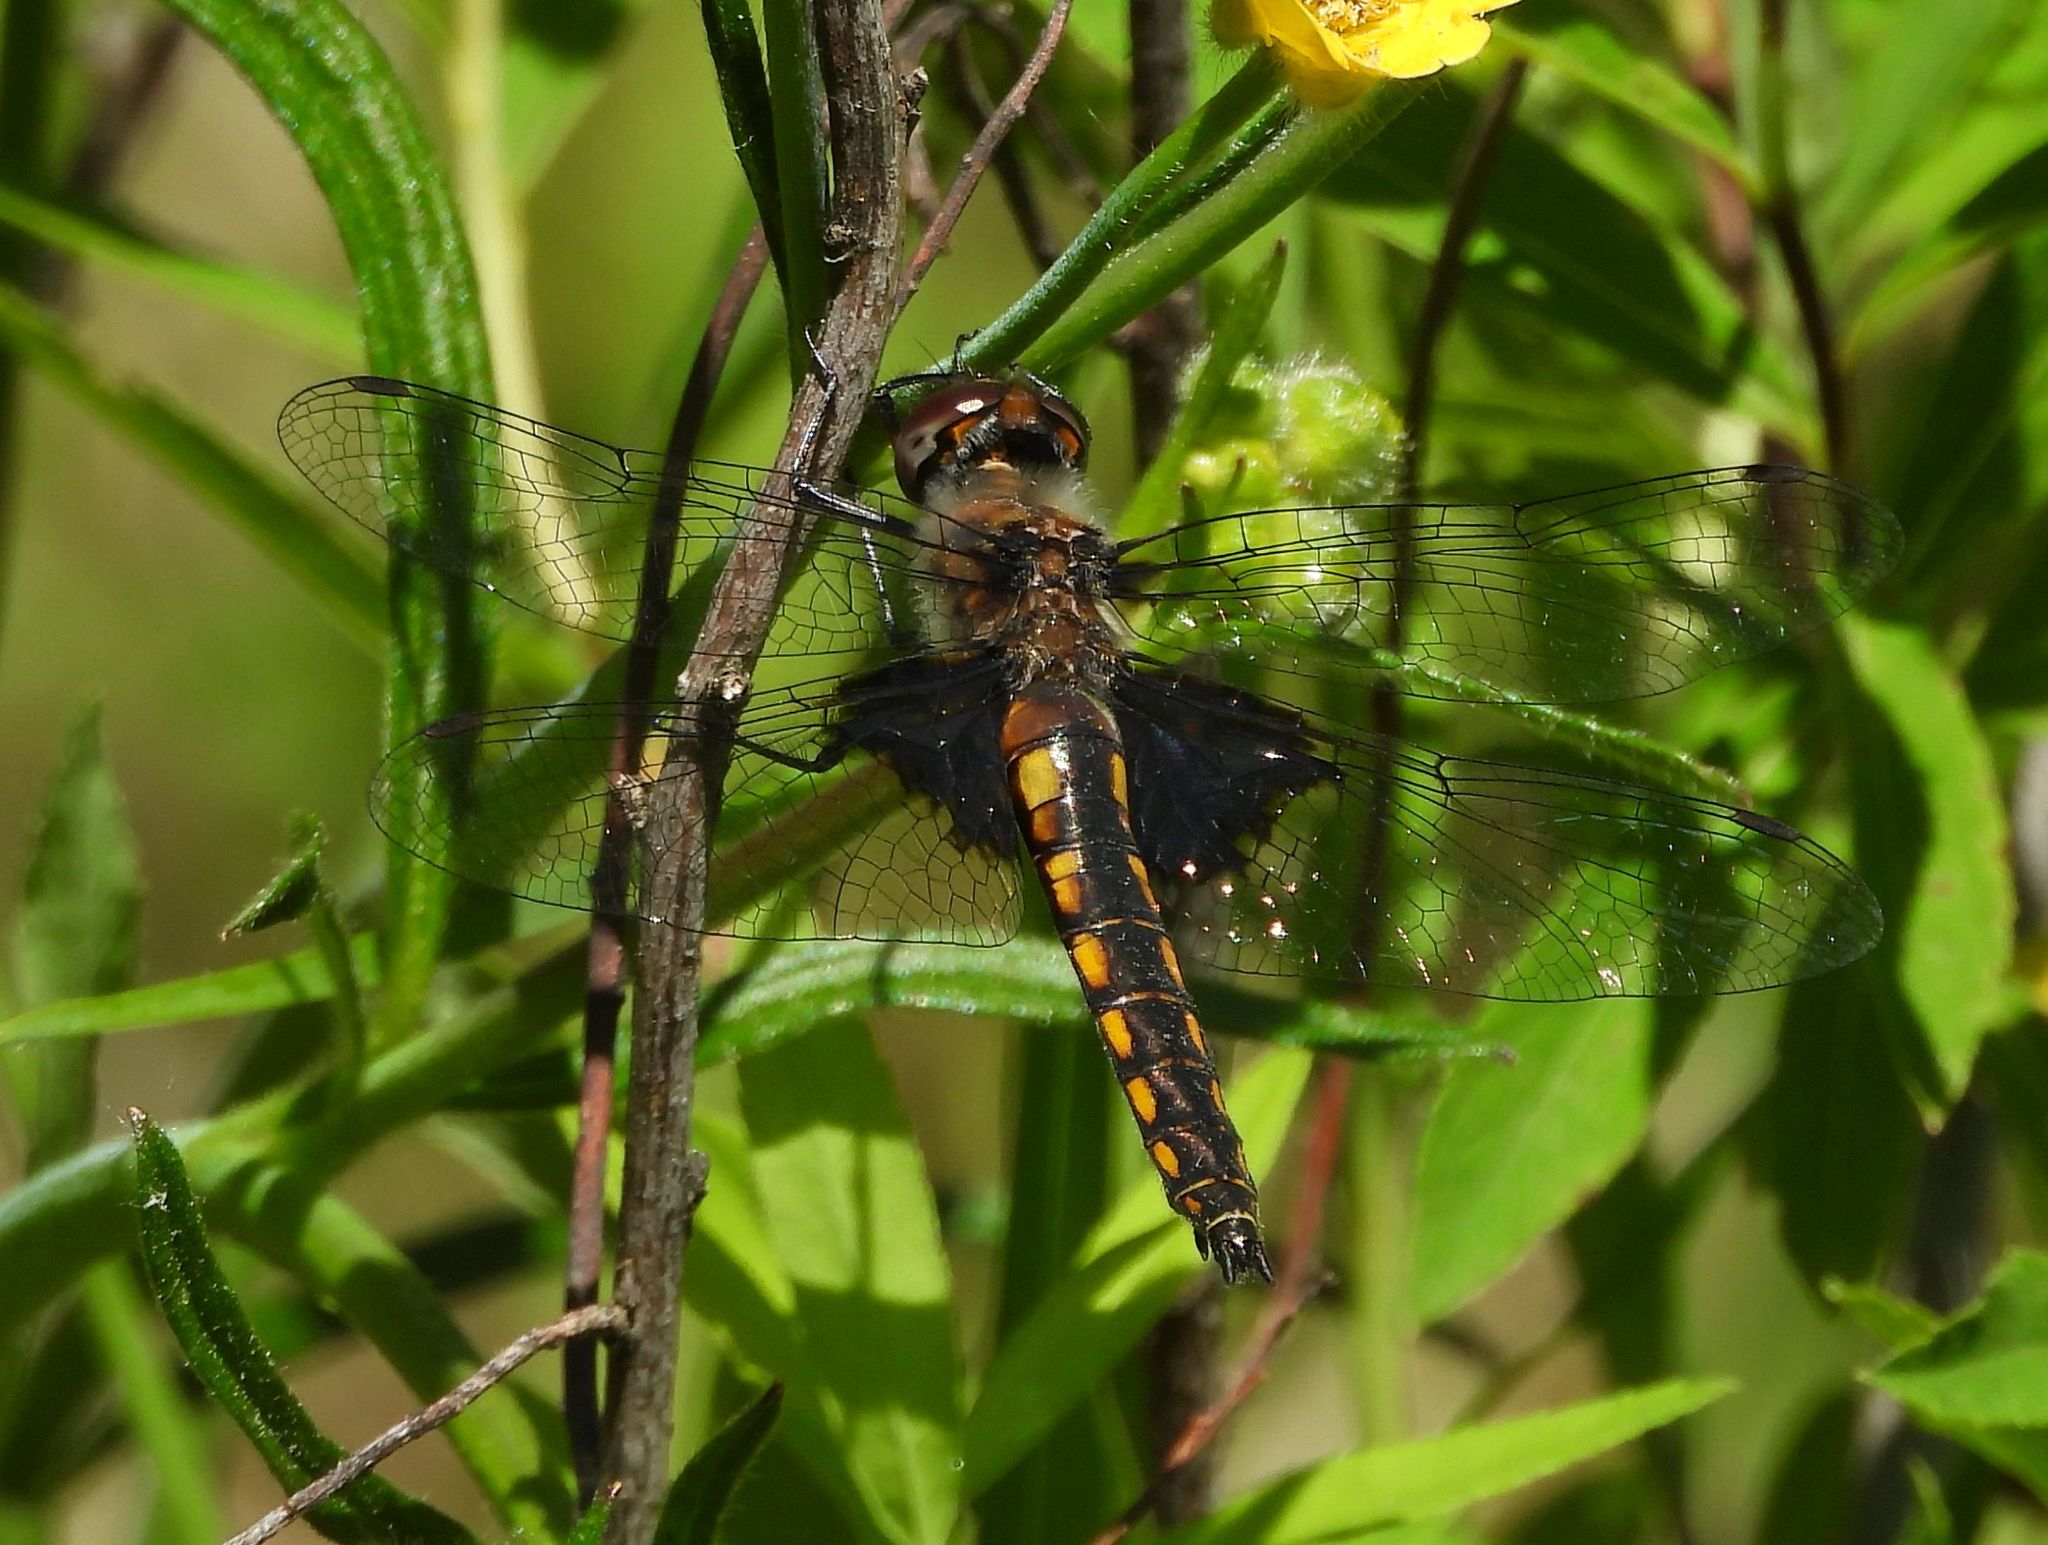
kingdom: Animalia
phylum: Arthropoda
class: Insecta
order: Odonata
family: Corduliidae
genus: Epitheca
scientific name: Epitheca cynosura
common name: Common baskettail
